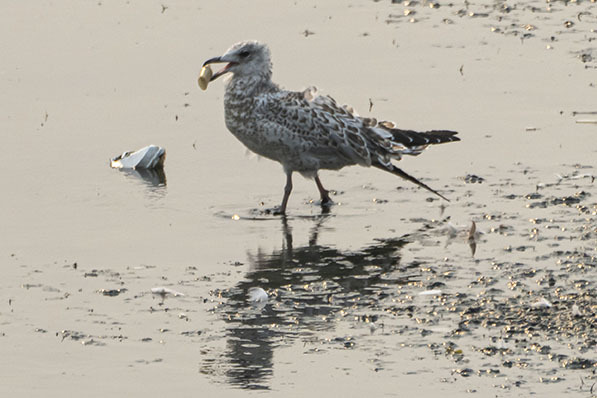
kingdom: Animalia
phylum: Chordata
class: Aves
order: Charadriiformes
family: Laridae
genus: Larus
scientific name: Larus delawarensis
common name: Ring-billed gull
